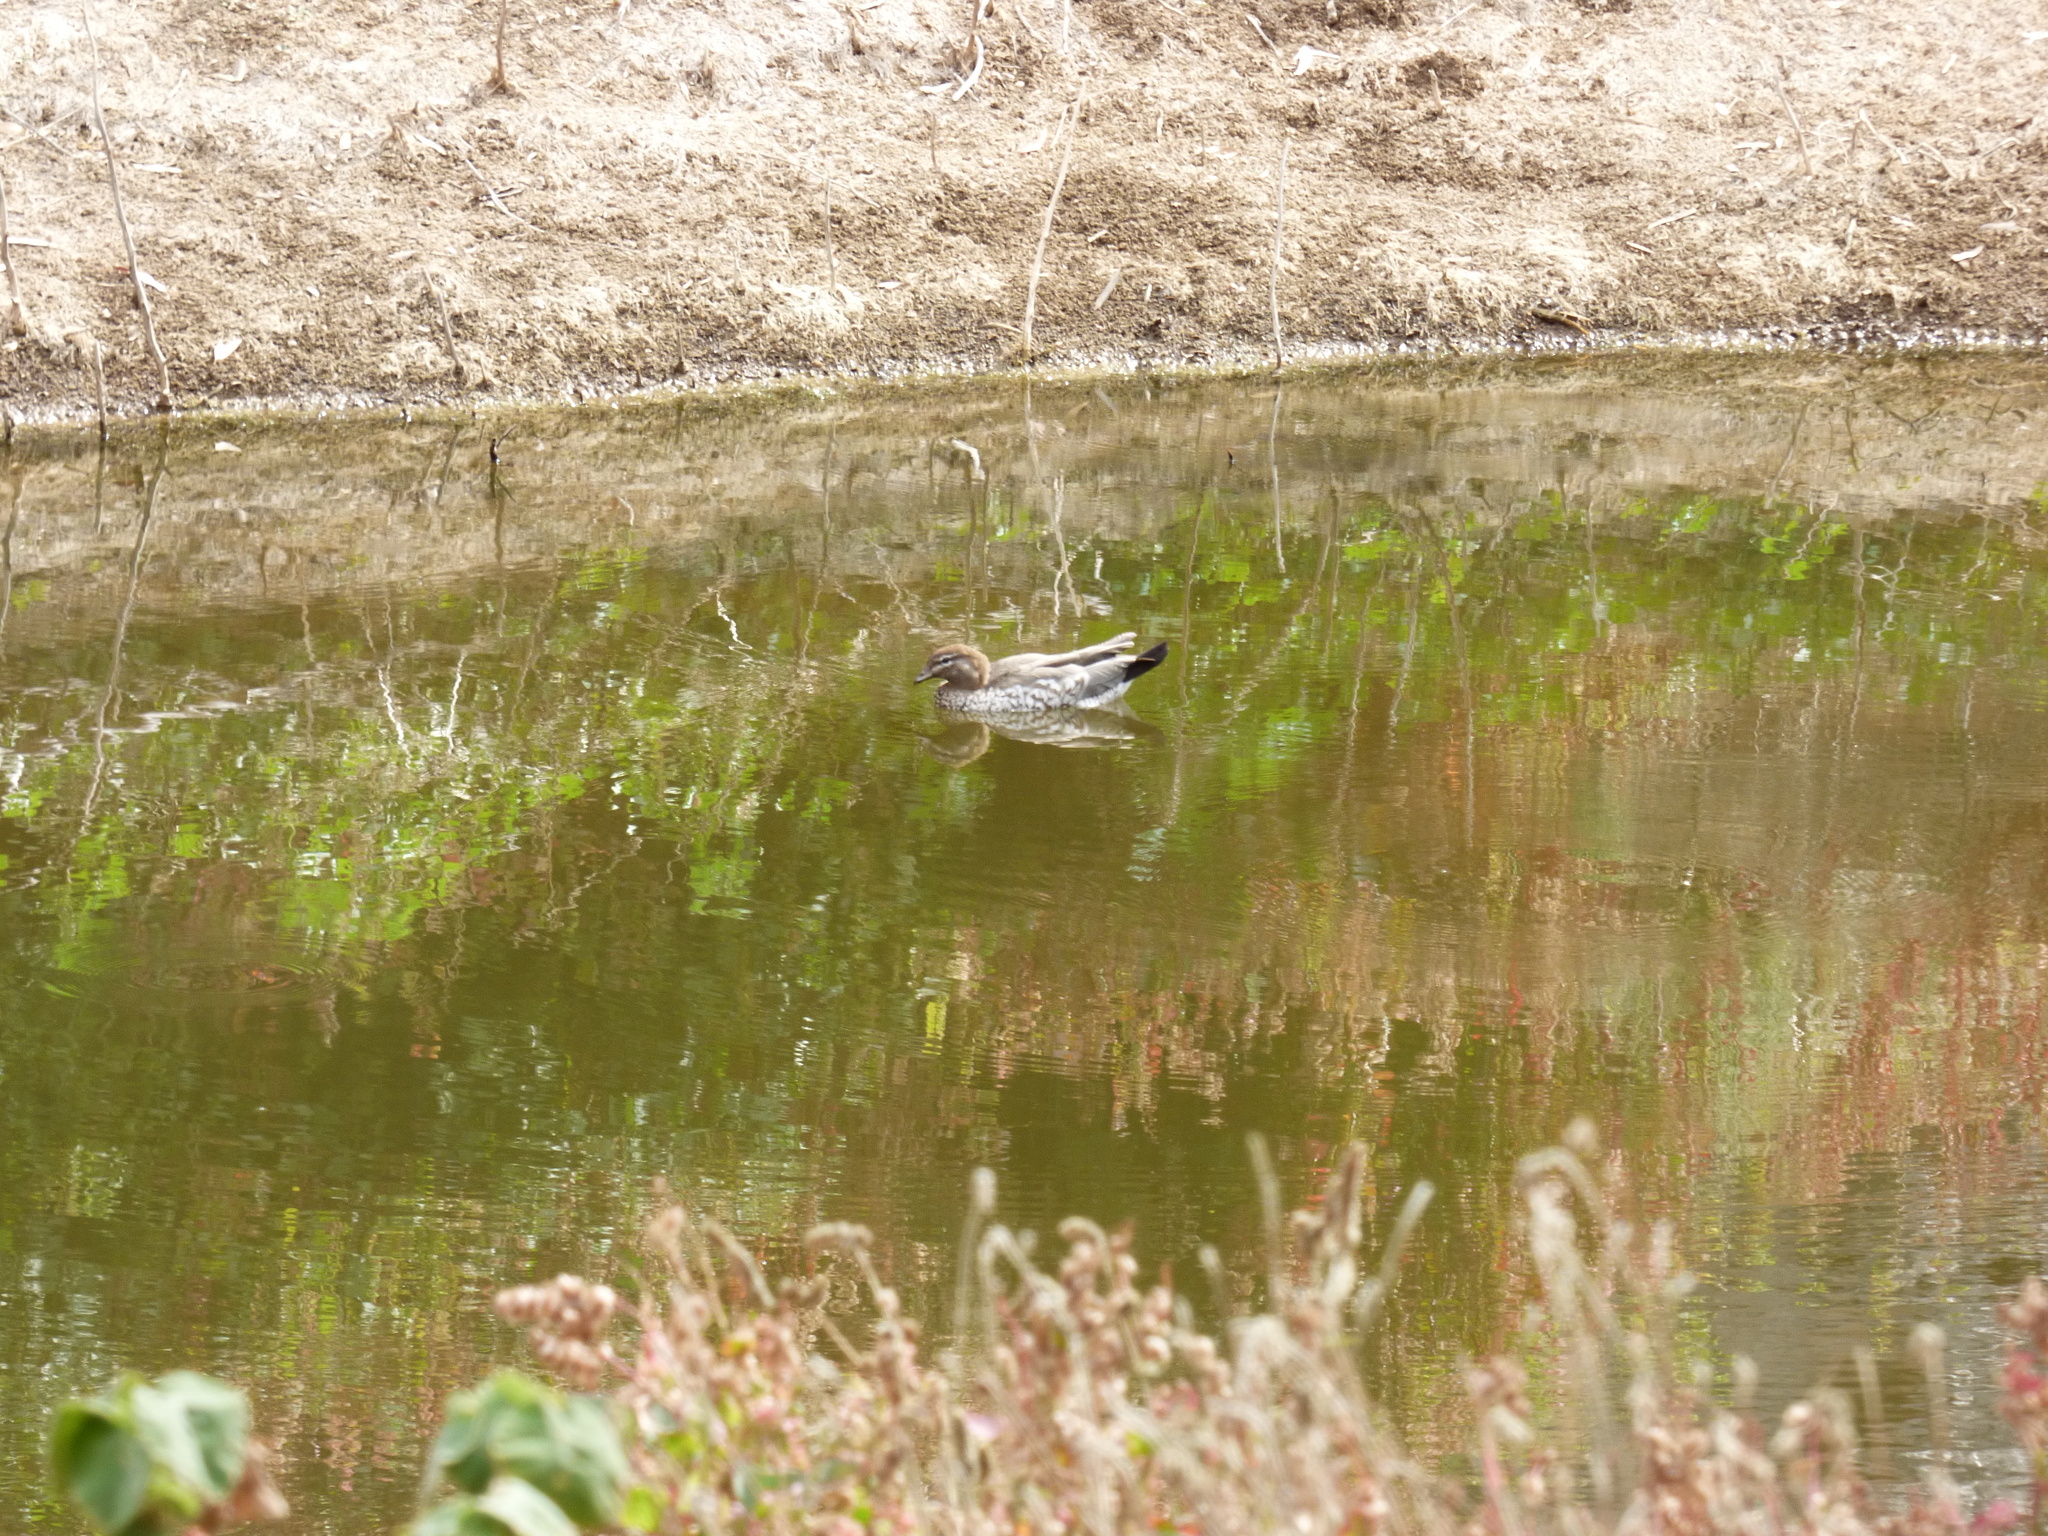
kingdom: Animalia
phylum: Chordata
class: Aves
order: Anseriformes
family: Anatidae
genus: Chenonetta
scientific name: Chenonetta jubata
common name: Maned duck
